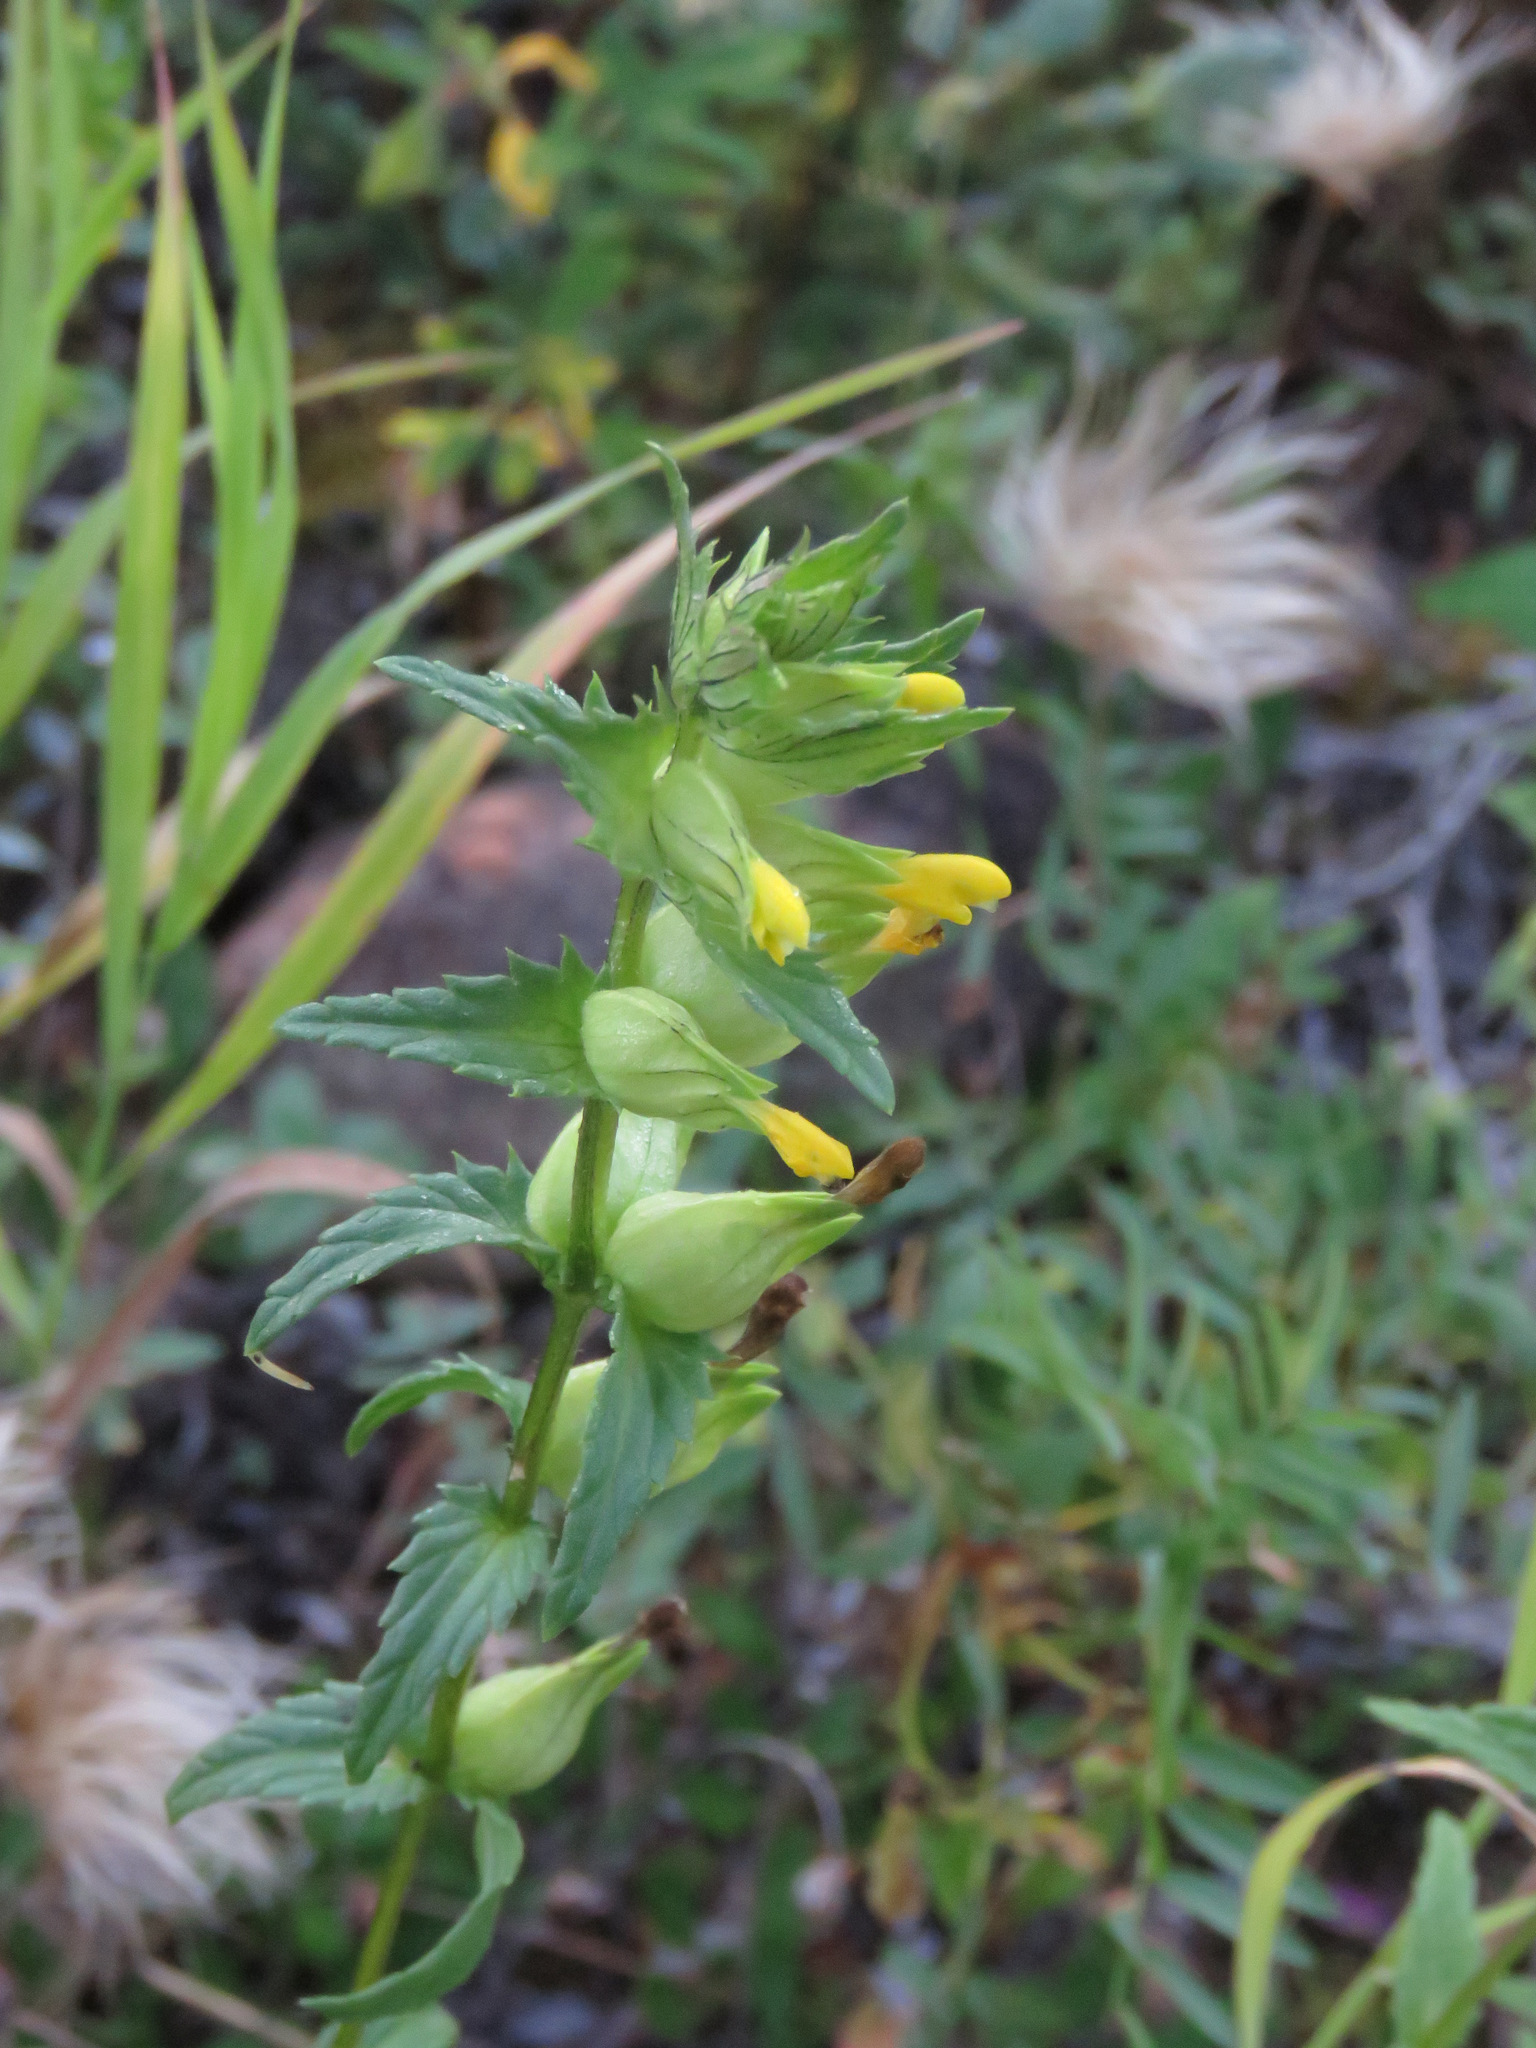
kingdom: Plantae
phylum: Tracheophyta
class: Magnoliopsida
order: Lamiales
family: Orobanchaceae
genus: Rhinanthus
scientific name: Rhinanthus minor
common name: Yellow-rattle
